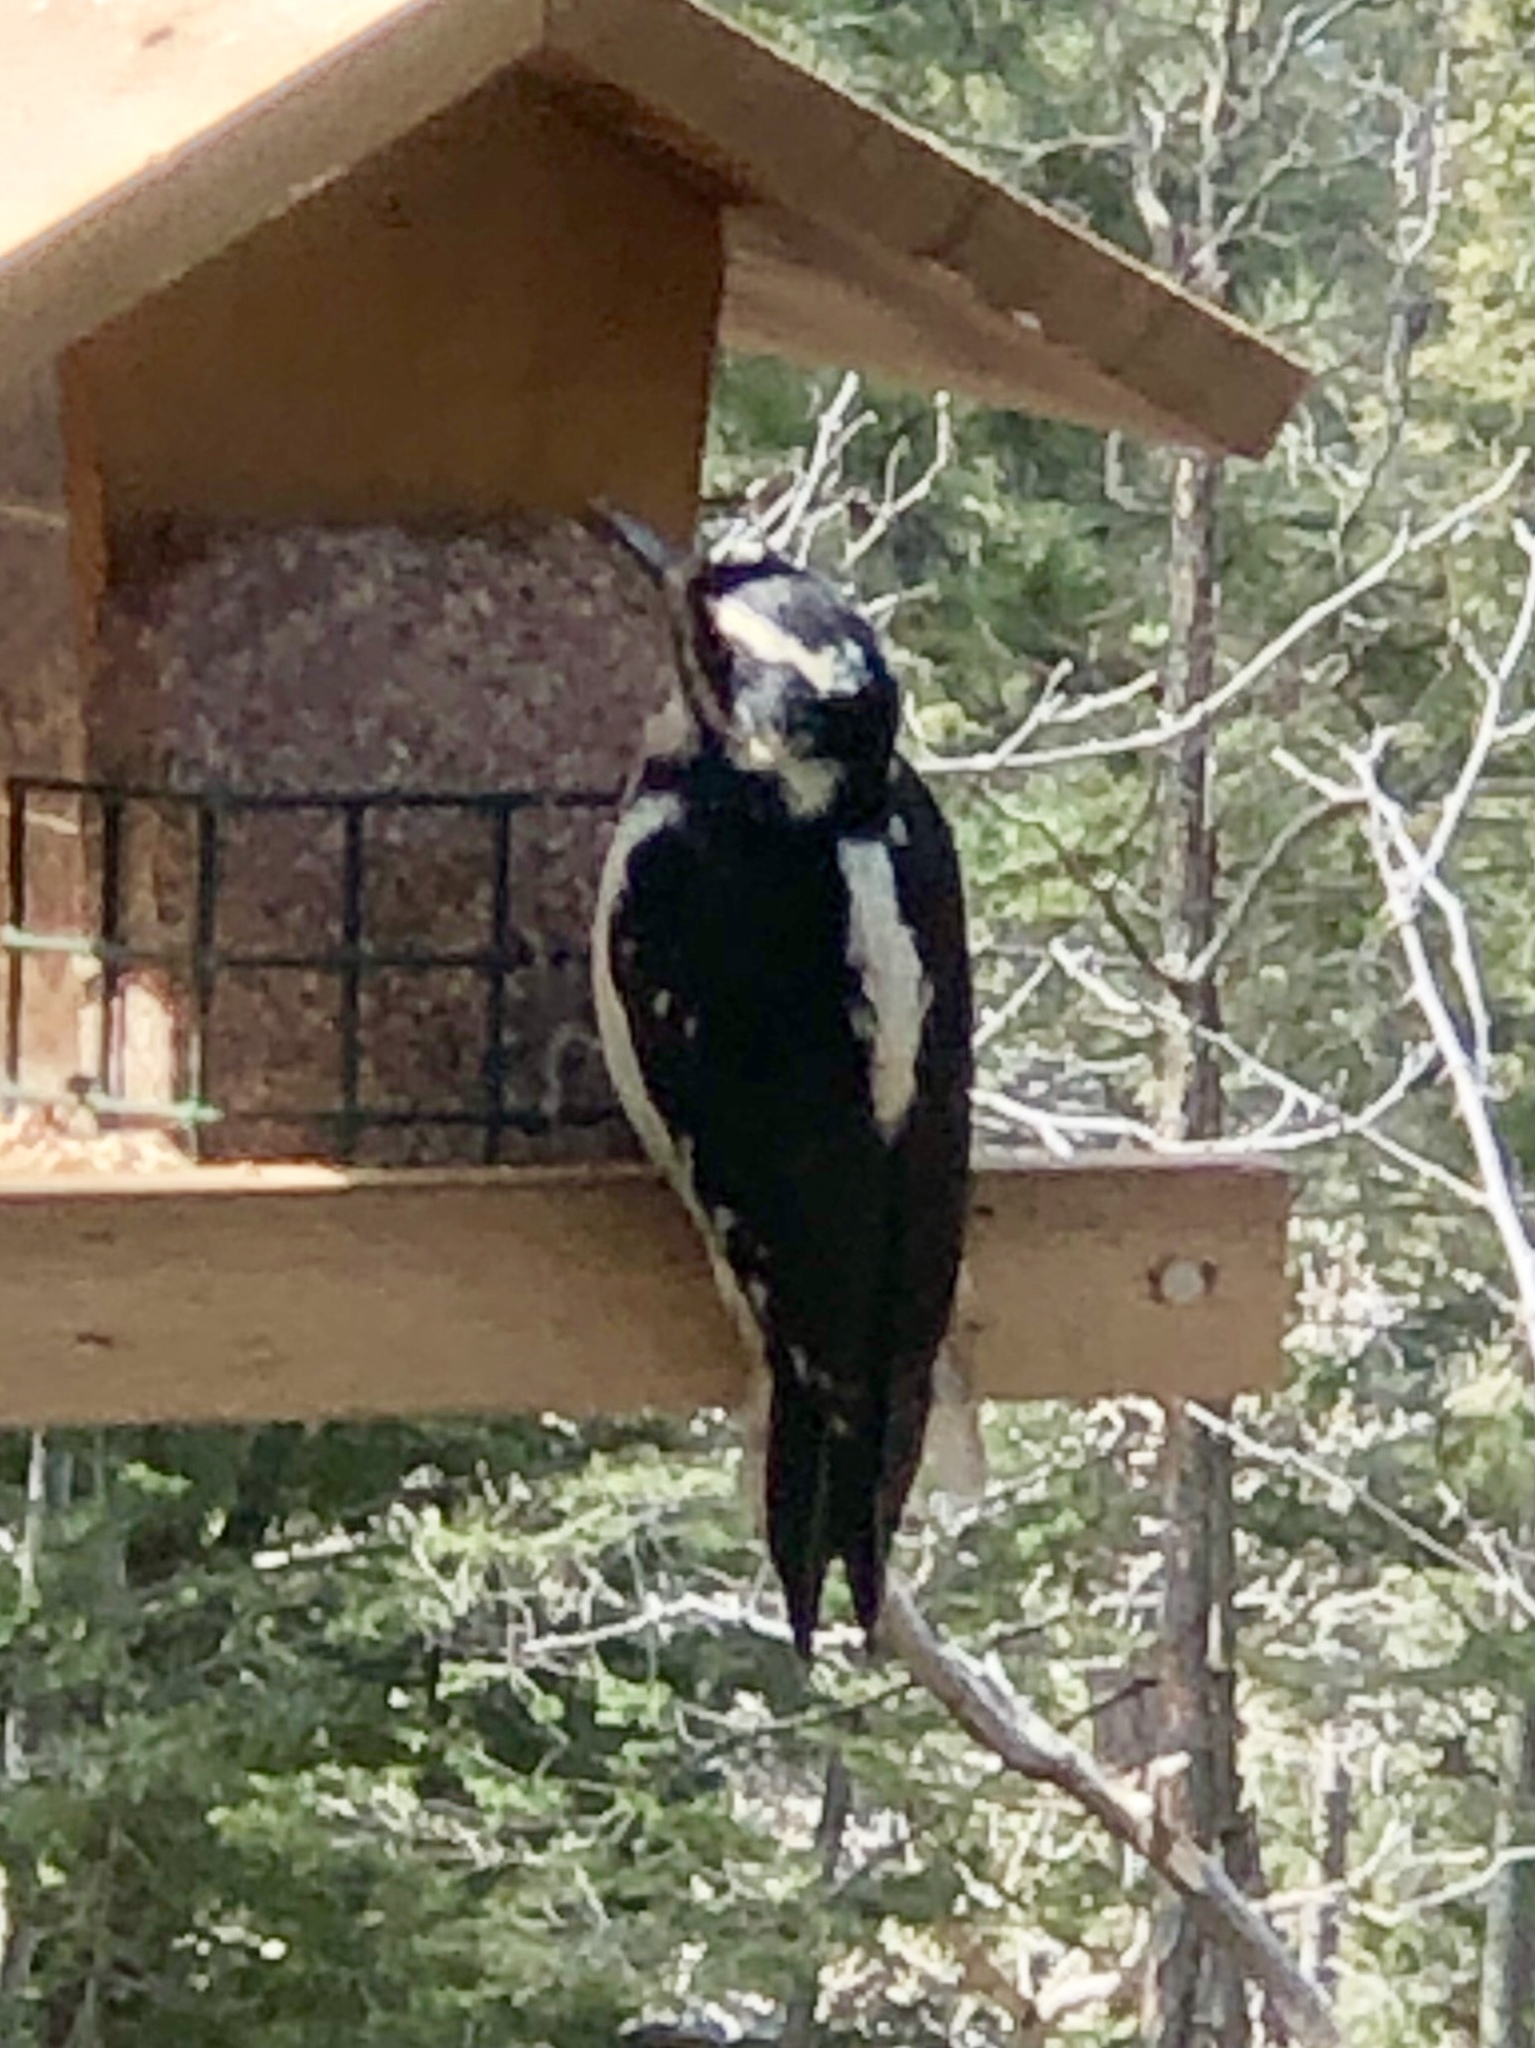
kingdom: Animalia
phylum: Chordata
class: Aves
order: Piciformes
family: Picidae
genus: Leuconotopicus
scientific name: Leuconotopicus villosus
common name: Hairy woodpecker
